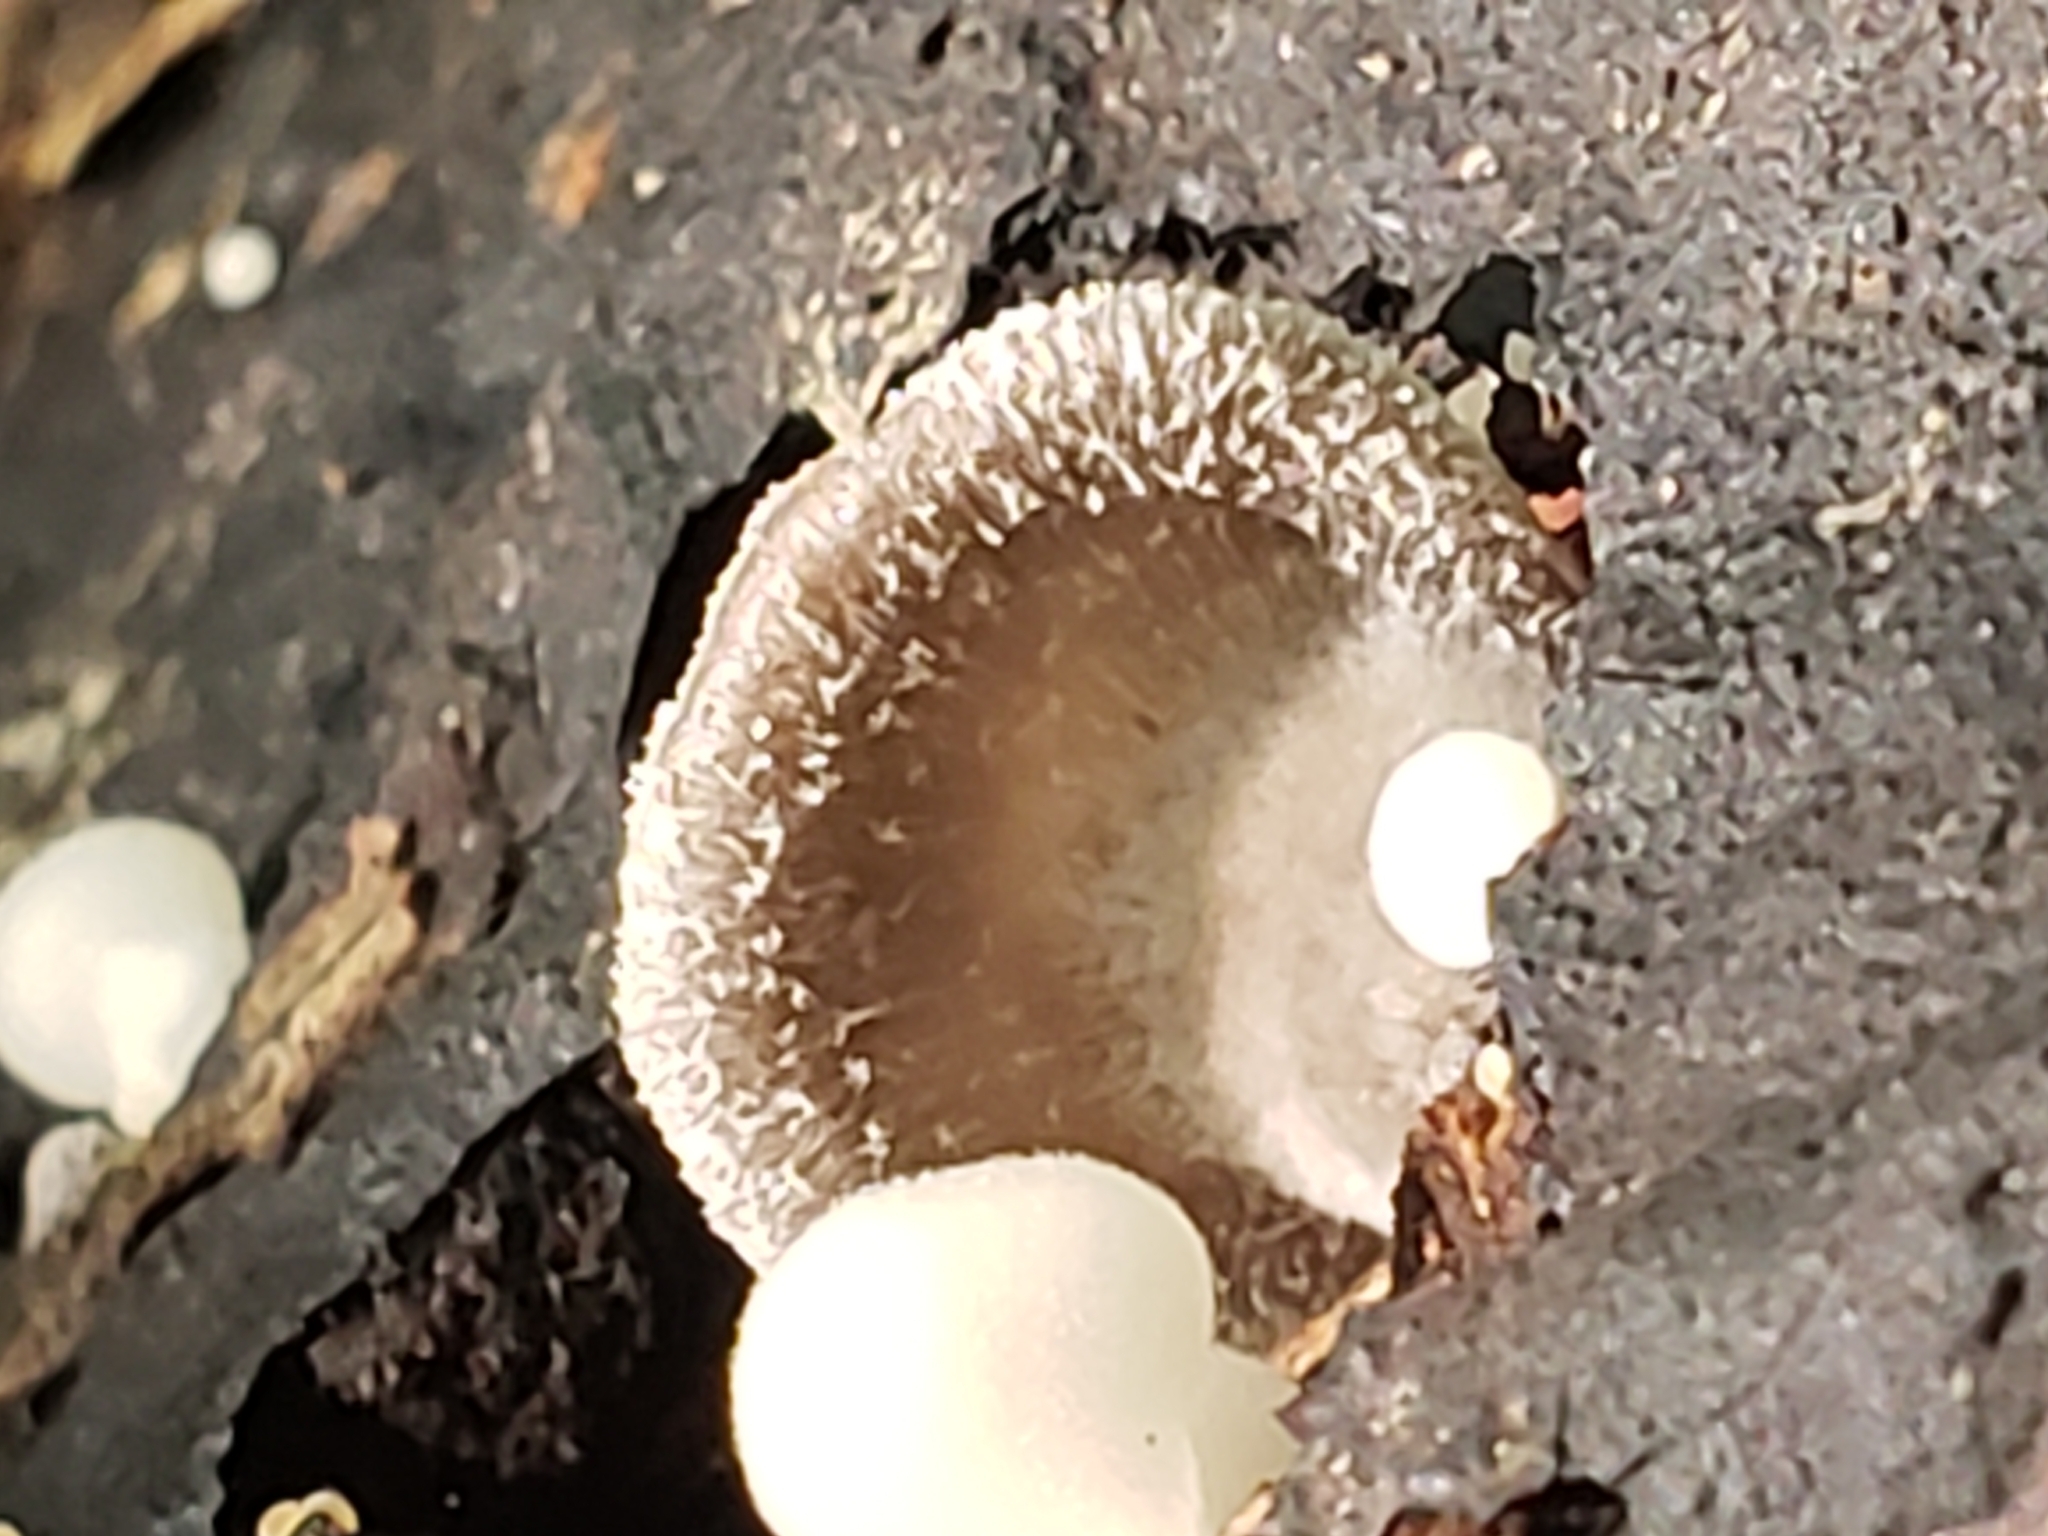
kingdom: Fungi
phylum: Basidiomycota
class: Agaricomycetes
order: Agaricales
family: Pleurotaceae
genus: Hohenbuehelia
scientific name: Hohenbuehelia mastrucata
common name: Woolly oyster
